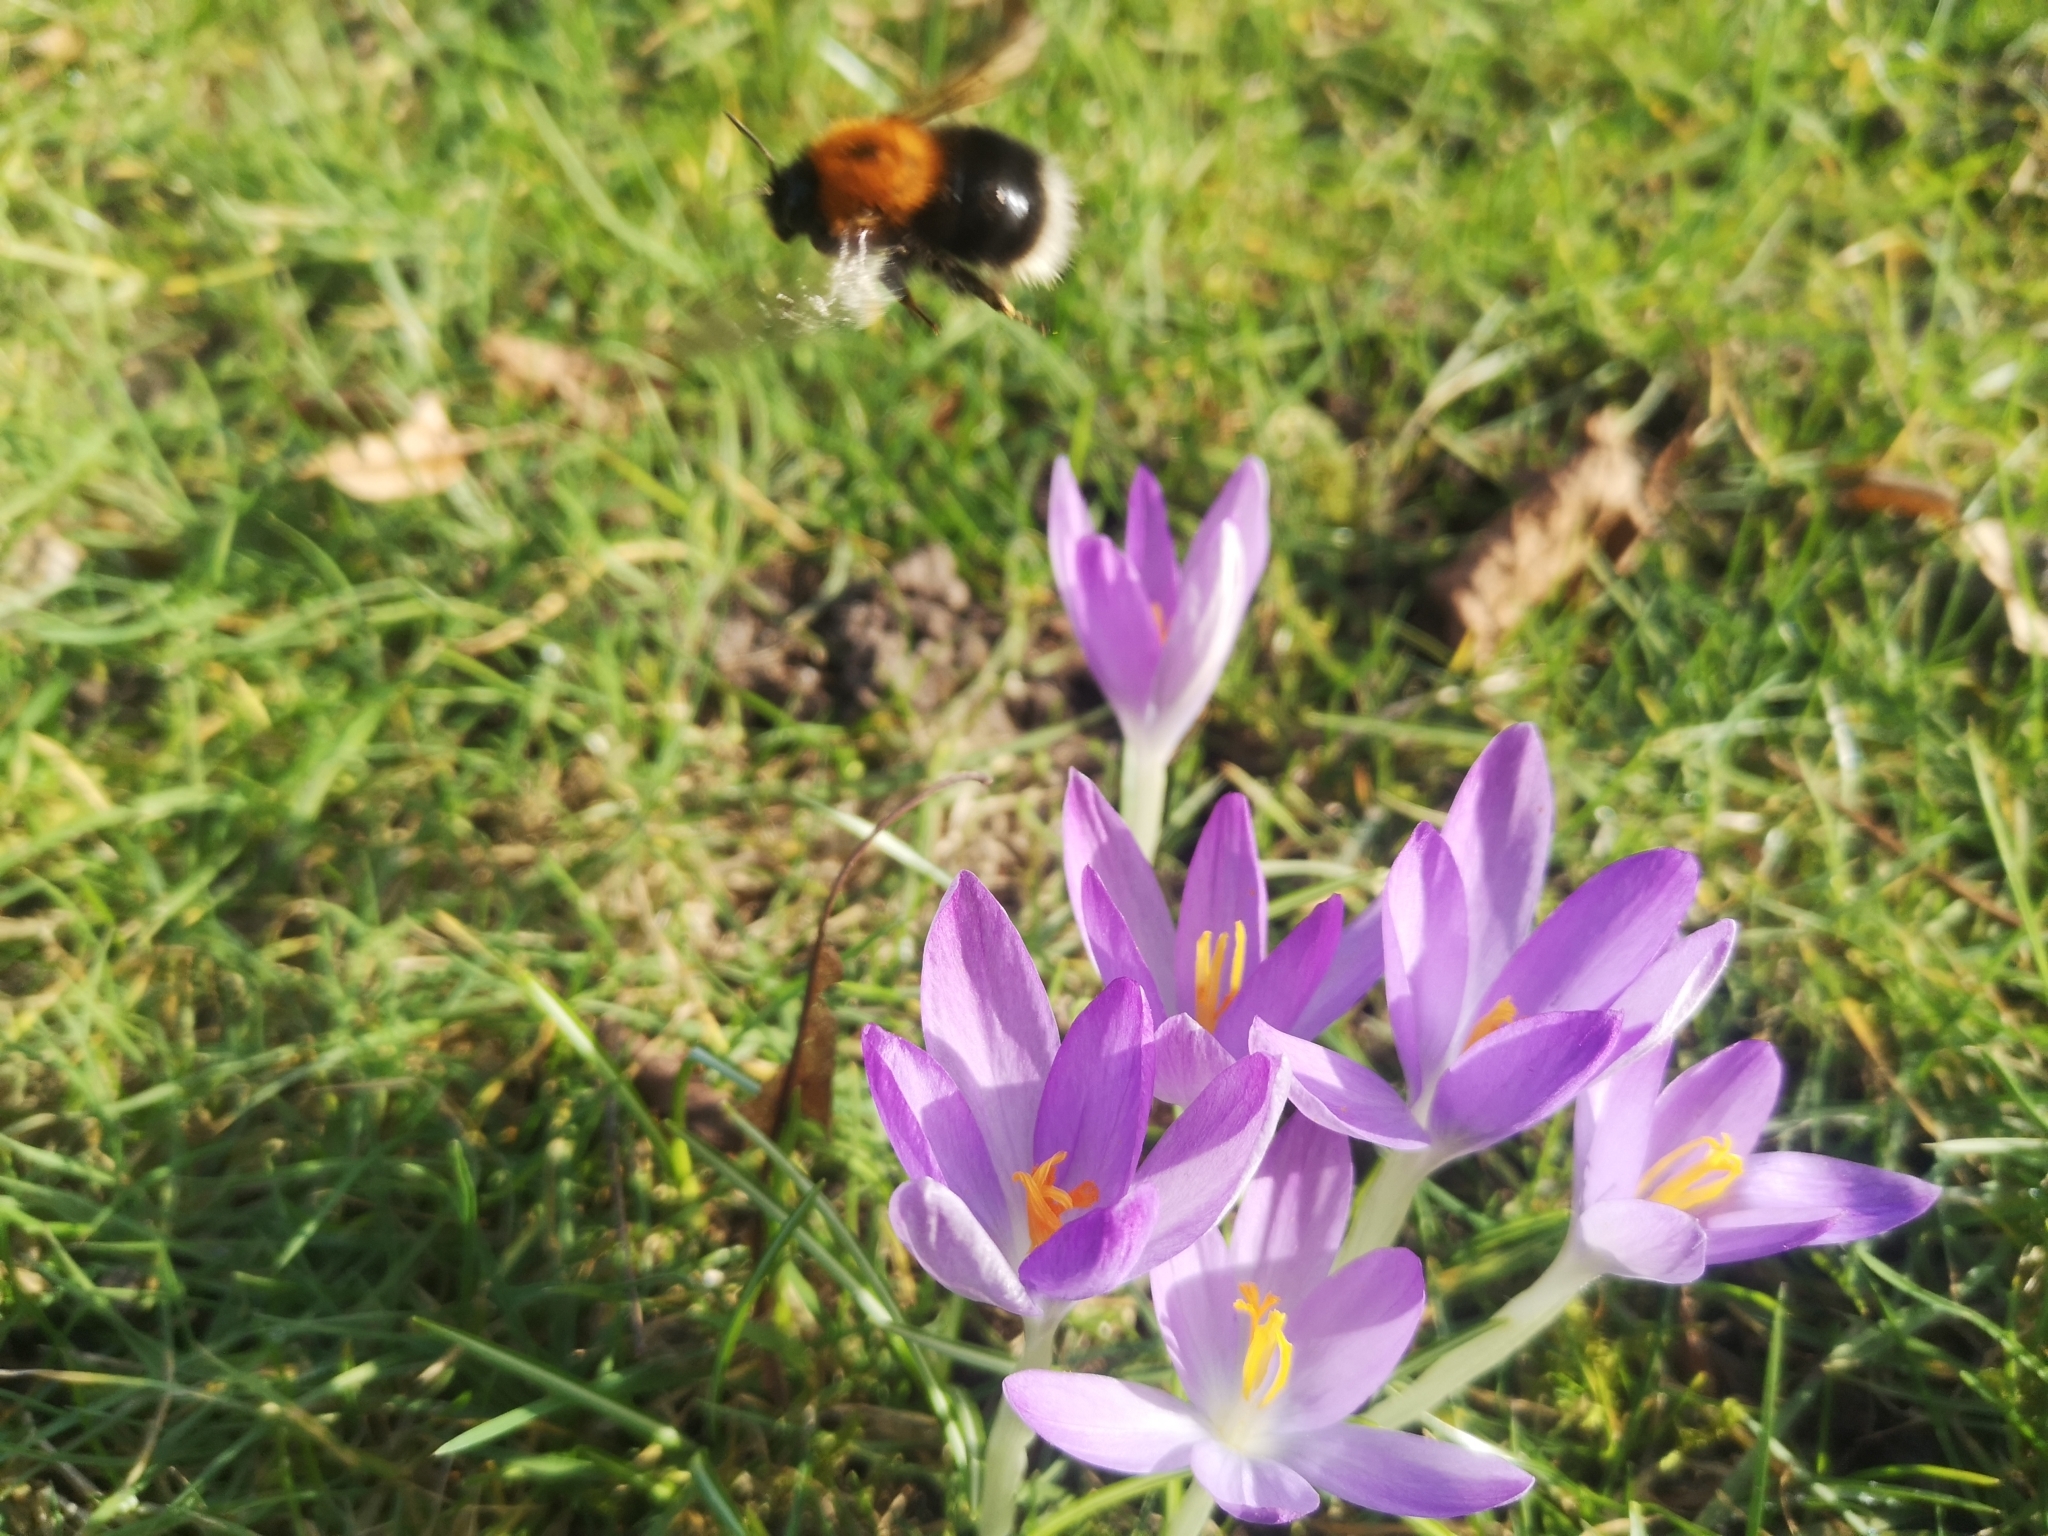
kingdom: Animalia
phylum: Arthropoda
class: Insecta
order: Hymenoptera
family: Apidae
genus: Bombus
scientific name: Bombus hypnorum
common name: New garden bumblebee
